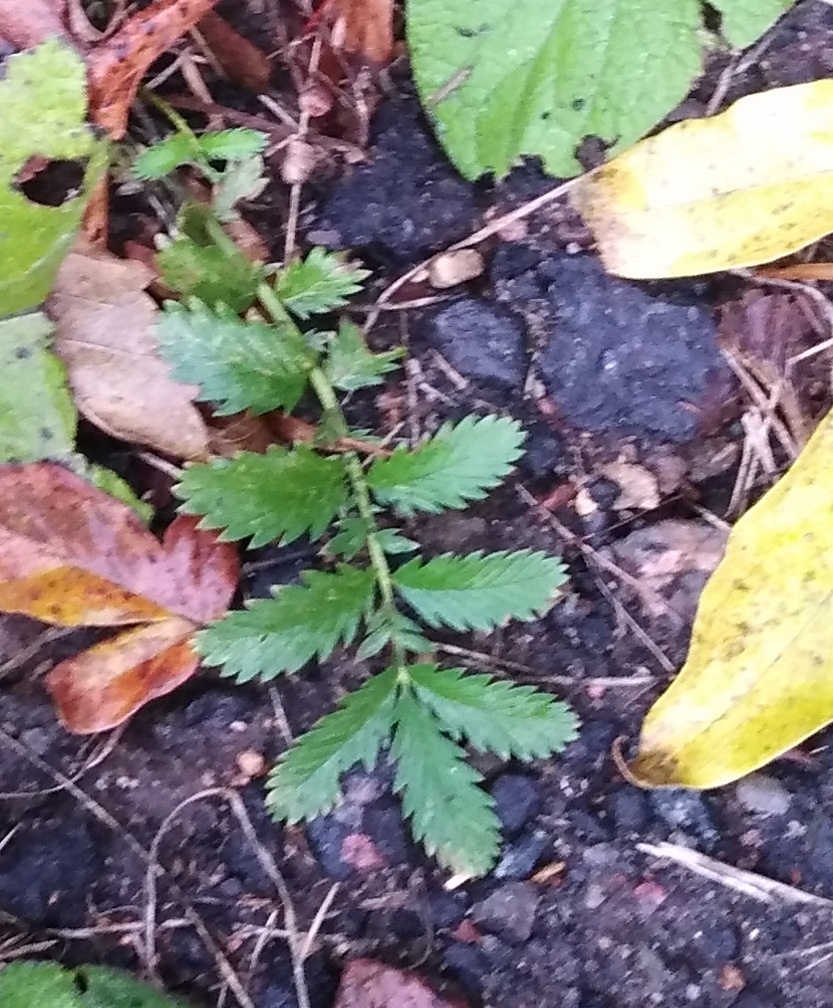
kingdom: Plantae
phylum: Tracheophyta
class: Magnoliopsida
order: Rosales
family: Rosaceae
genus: Argentina
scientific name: Argentina anserina
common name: Common silverweed
